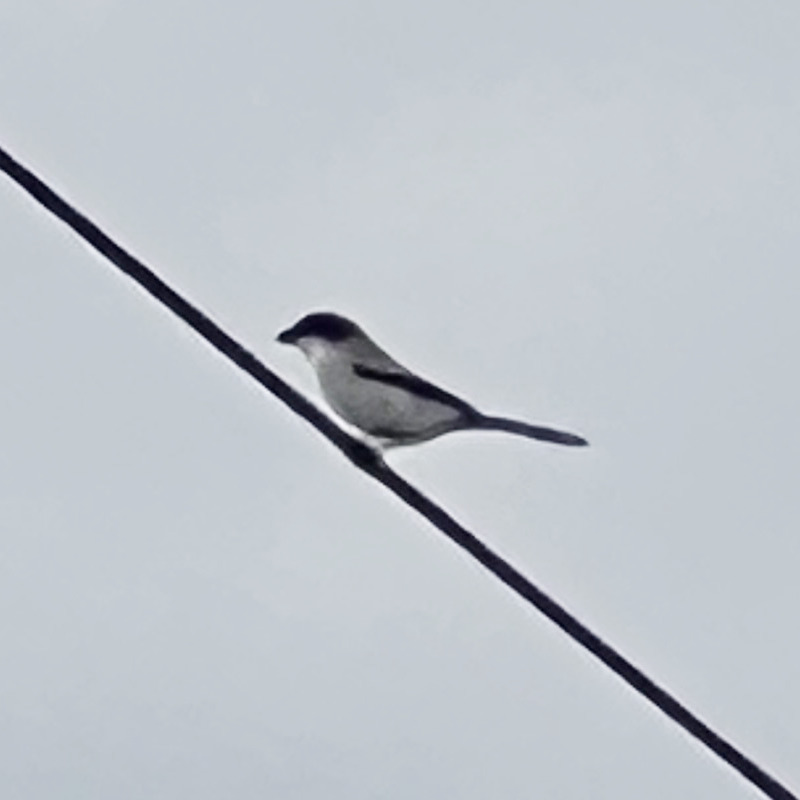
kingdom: Animalia
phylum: Chordata
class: Aves
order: Passeriformes
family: Laniidae
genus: Lanius
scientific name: Lanius ludovicianus
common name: Loggerhead shrike
